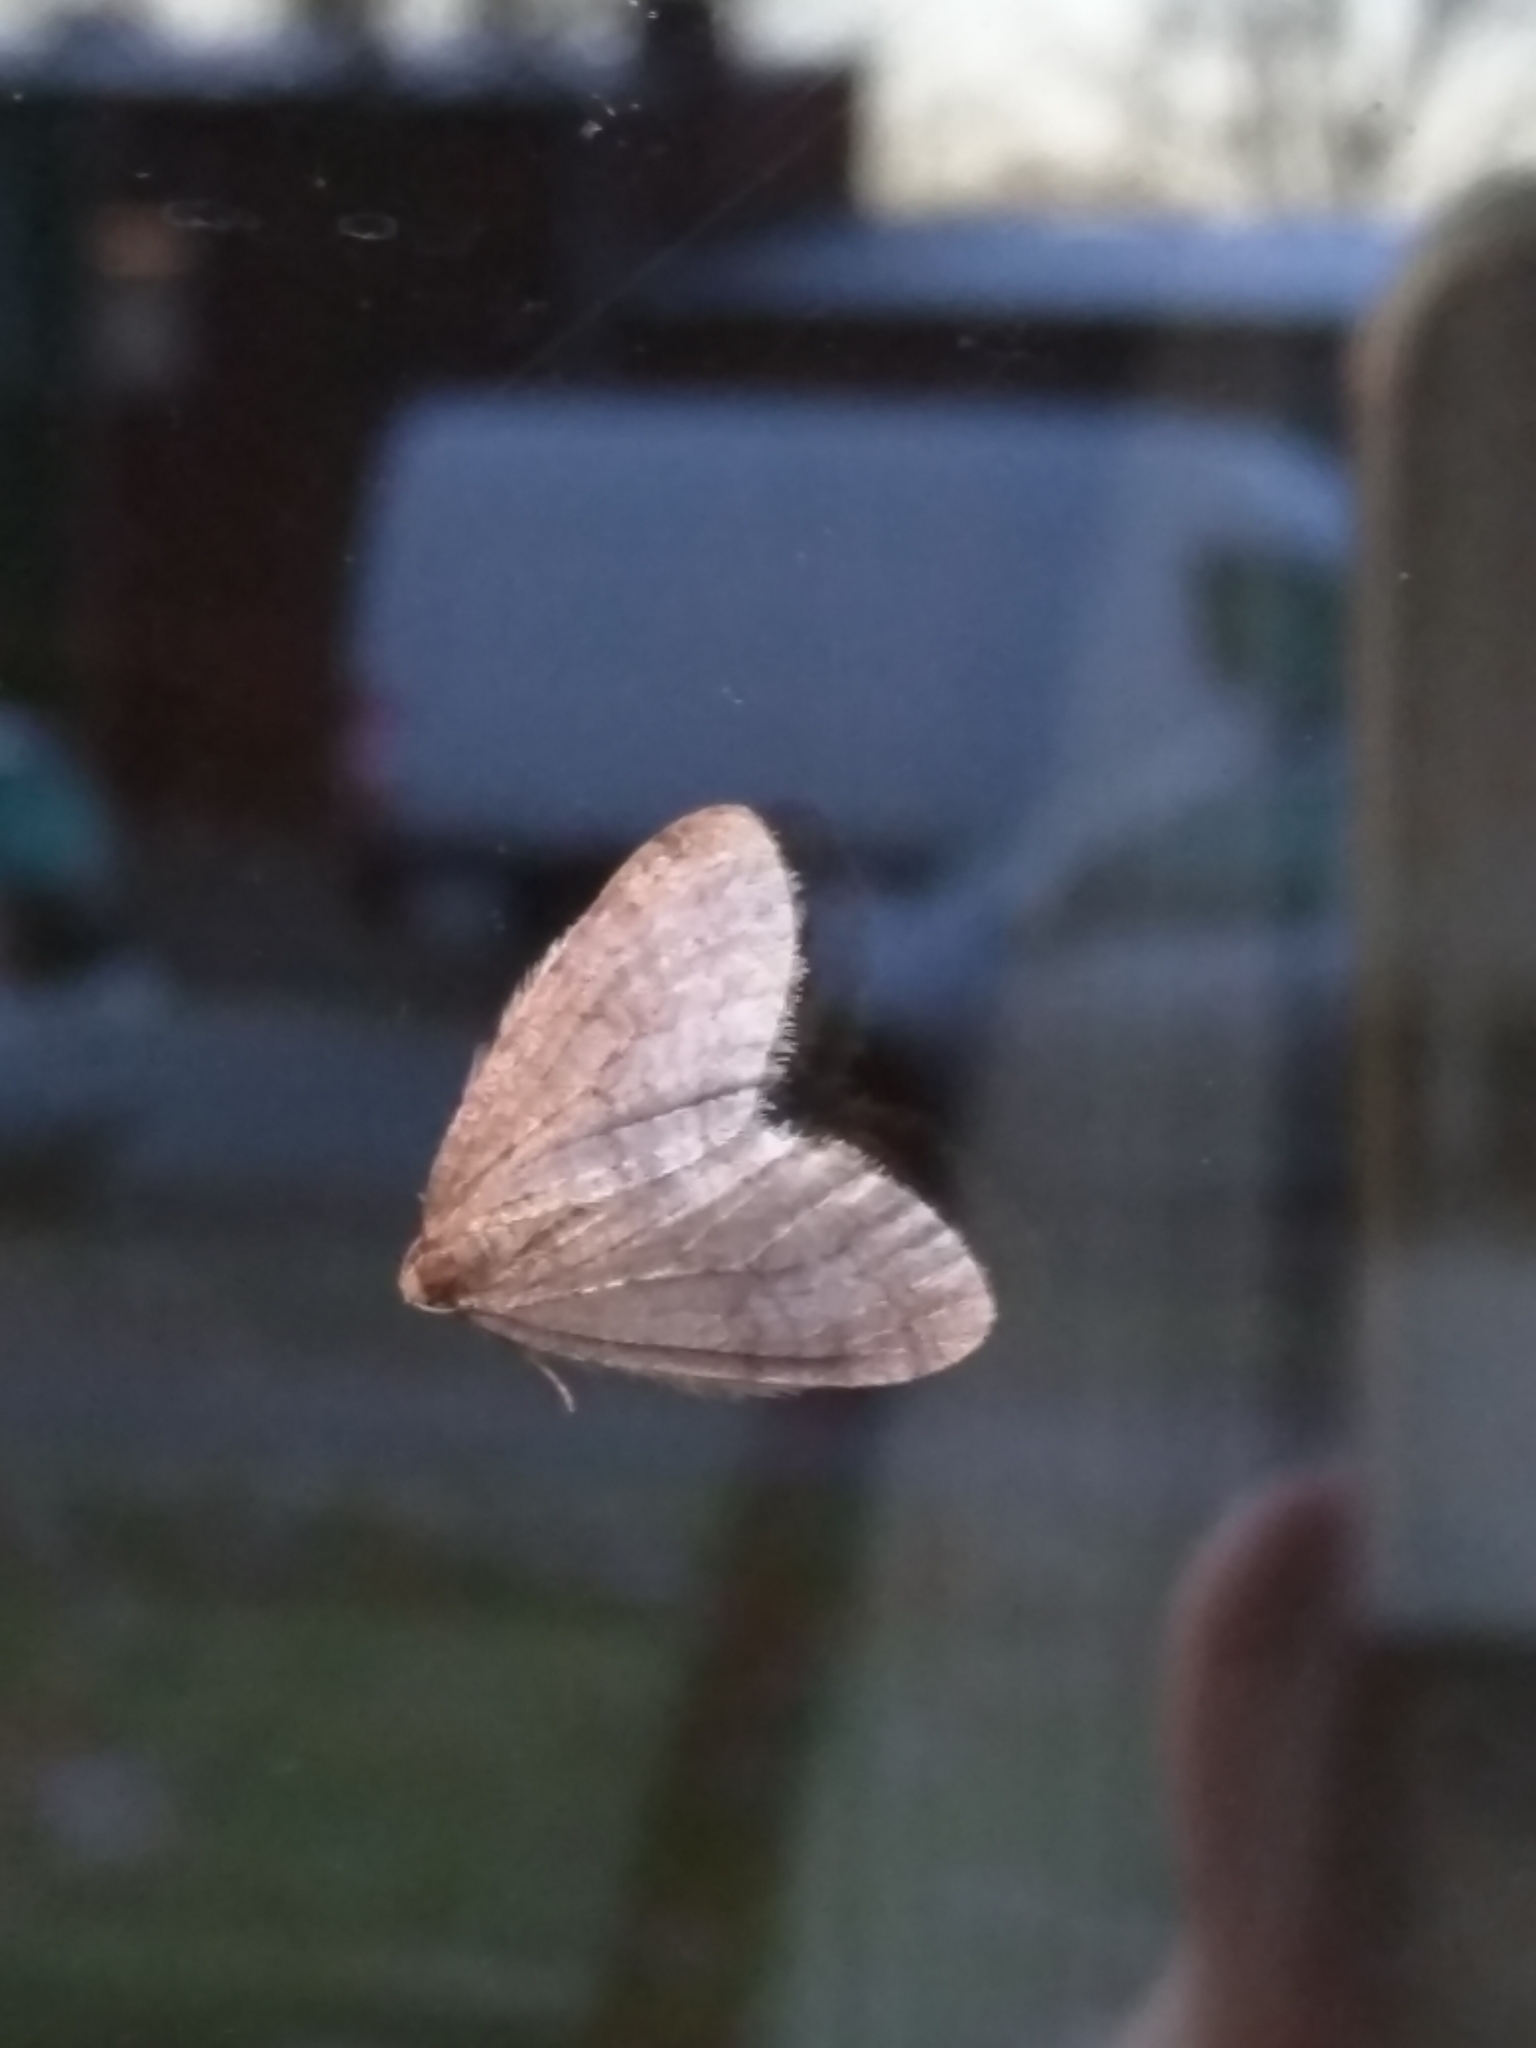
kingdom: Animalia
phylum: Arthropoda
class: Insecta
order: Lepidoptera
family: Geometridae
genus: Operophtera
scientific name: Operophtera brumata
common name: Winter moth
